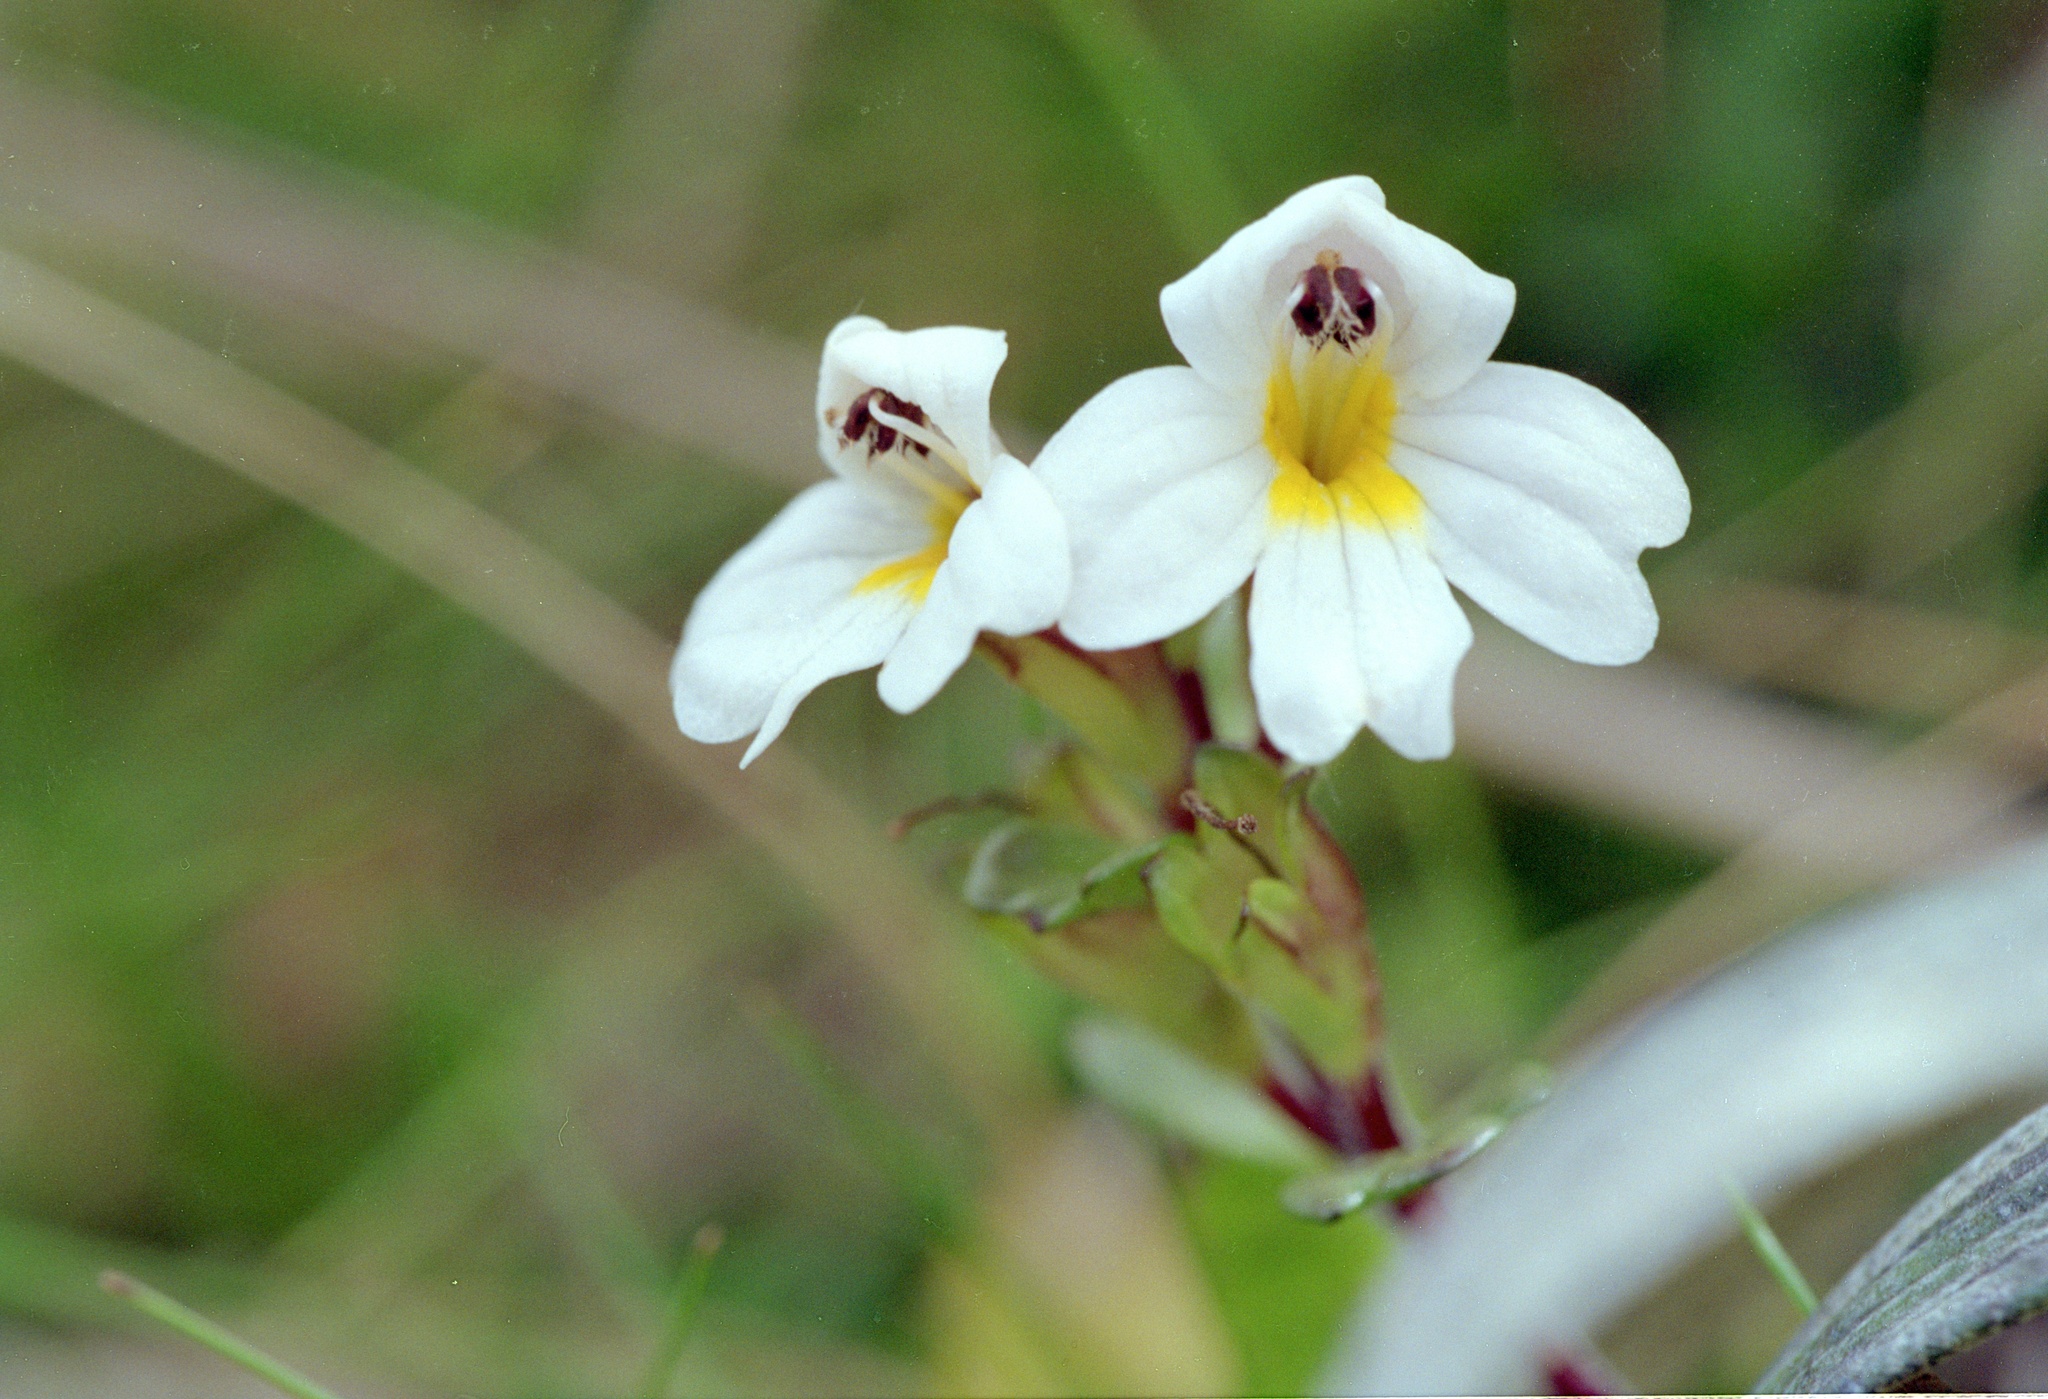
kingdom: Plantae
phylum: Tracheophyta
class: Magnoliopsida
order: Lamiales
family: Orobanchaceae
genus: Euphrasia
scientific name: Euphrasia laingii
